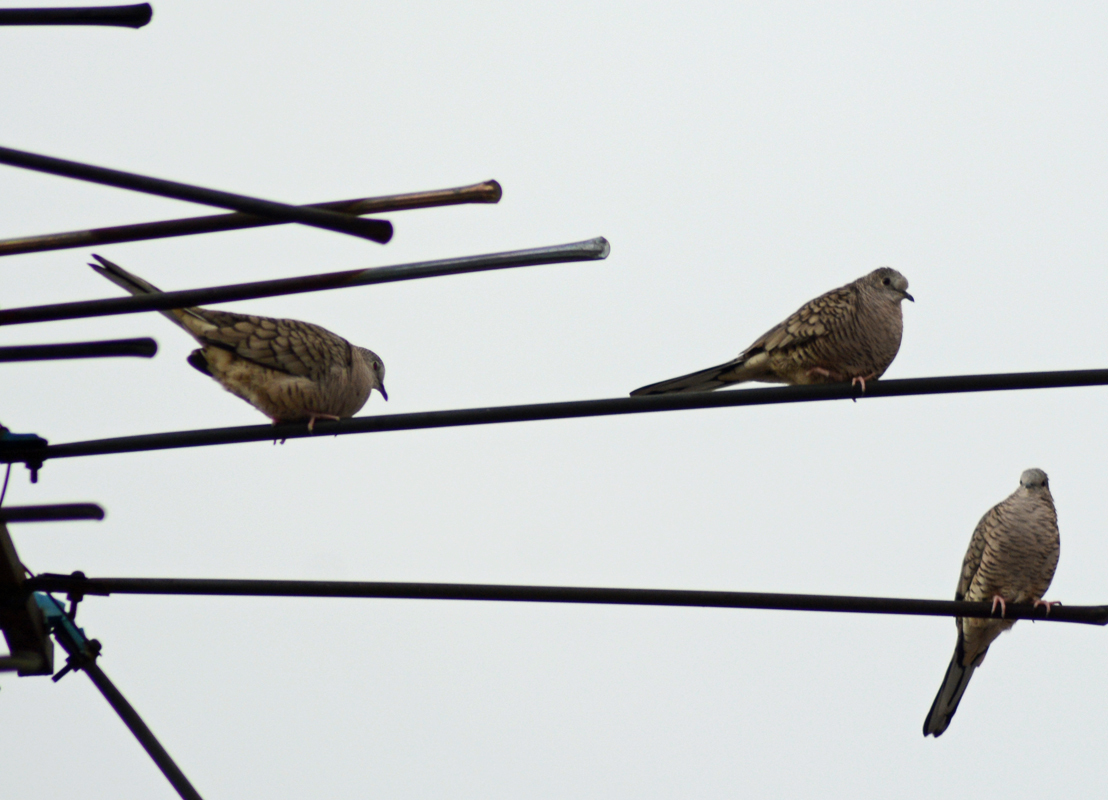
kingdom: Animalia
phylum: Chordata
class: Aves
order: Columbiformes
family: Columbidae
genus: Columbina
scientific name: Columbina inca
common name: Inca dove
